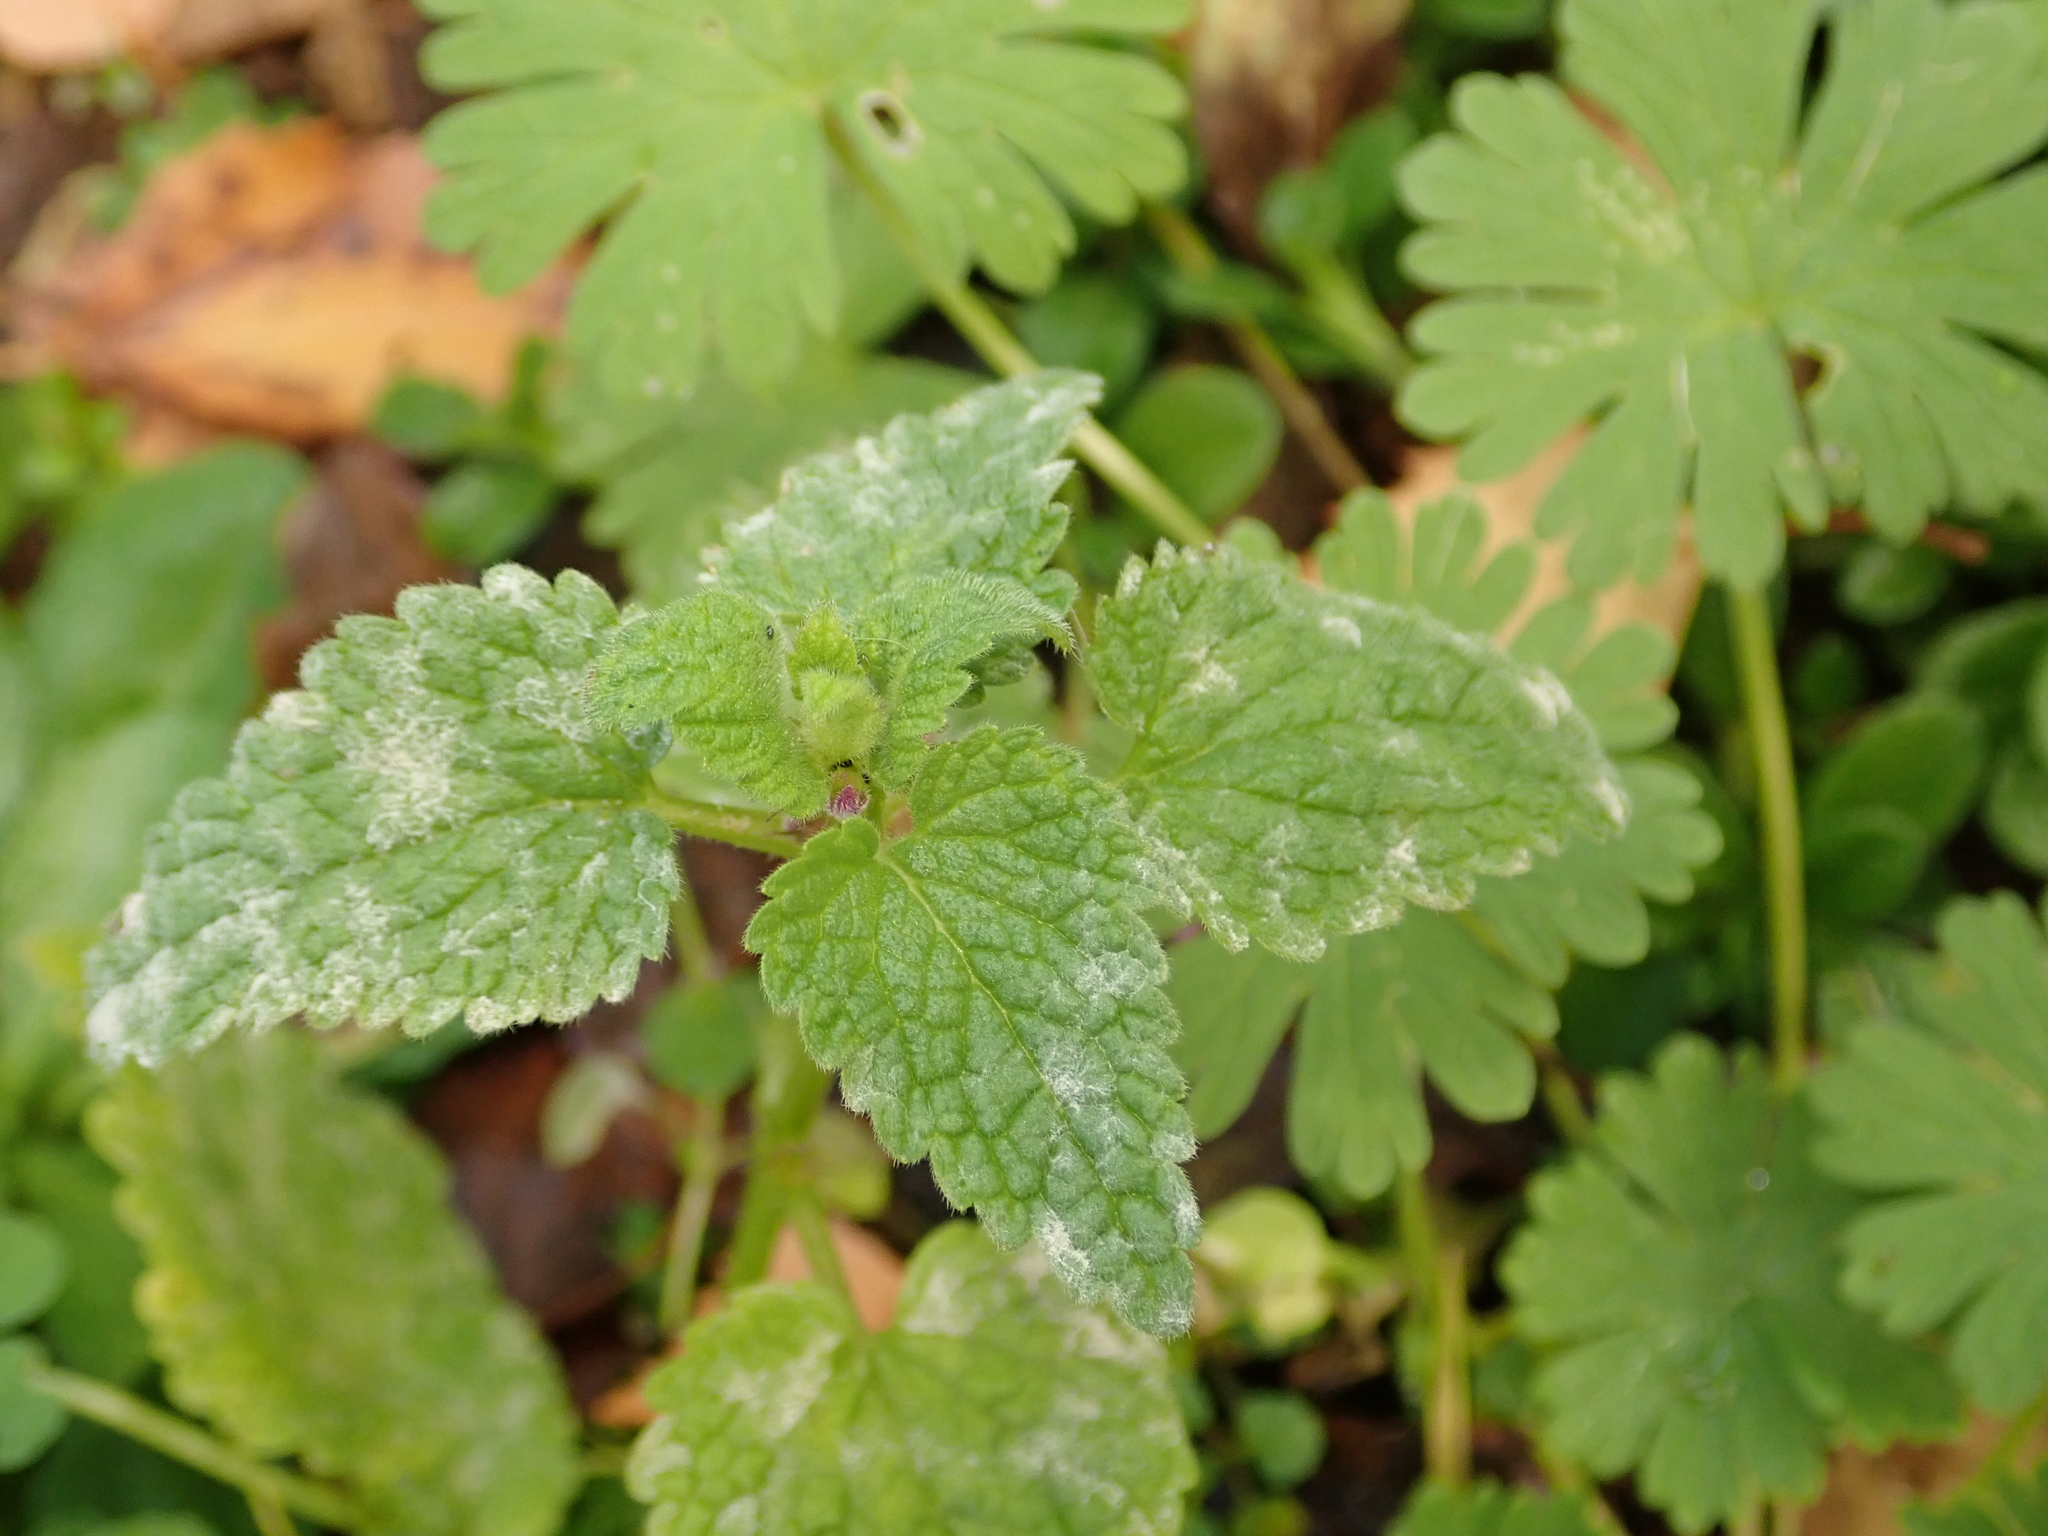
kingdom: Plantae
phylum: Tracheophyta
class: Magnoliopsida
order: Lamiales
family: Lamiaceae
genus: Lamium
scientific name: Lamium purpureum
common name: Red dead-nettle
